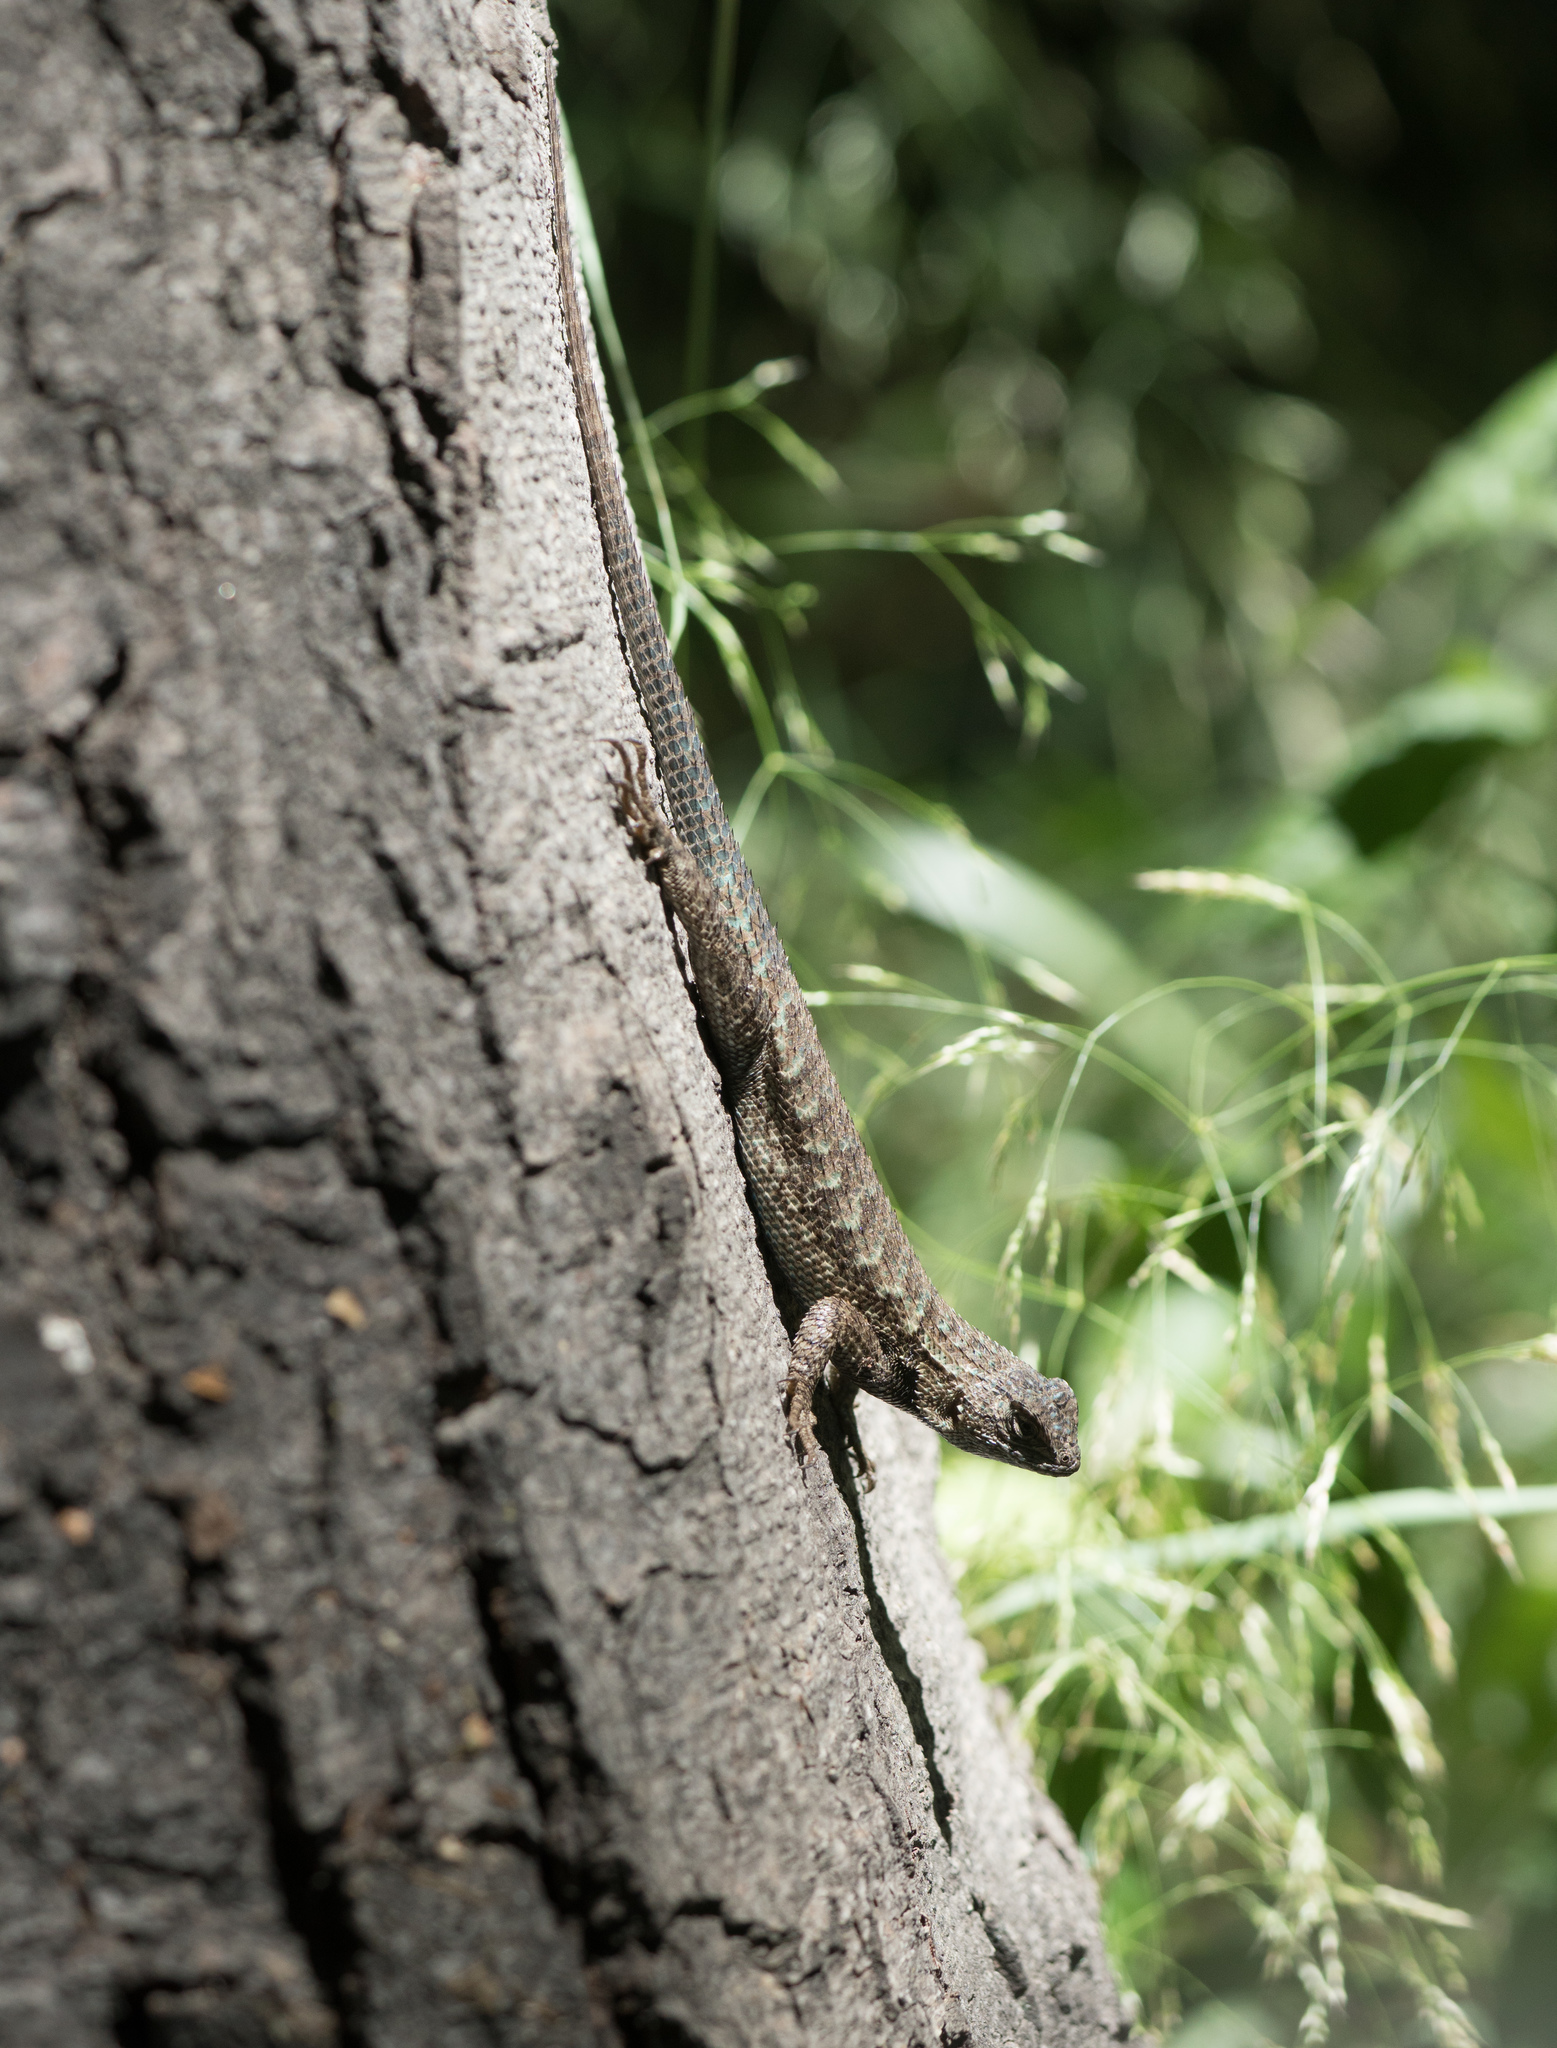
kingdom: Animalia
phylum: Chordata
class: Squamata
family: Phrynosomatidae
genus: Sceloporus
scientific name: Sceloporus occidentalis
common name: Western fence lizard
